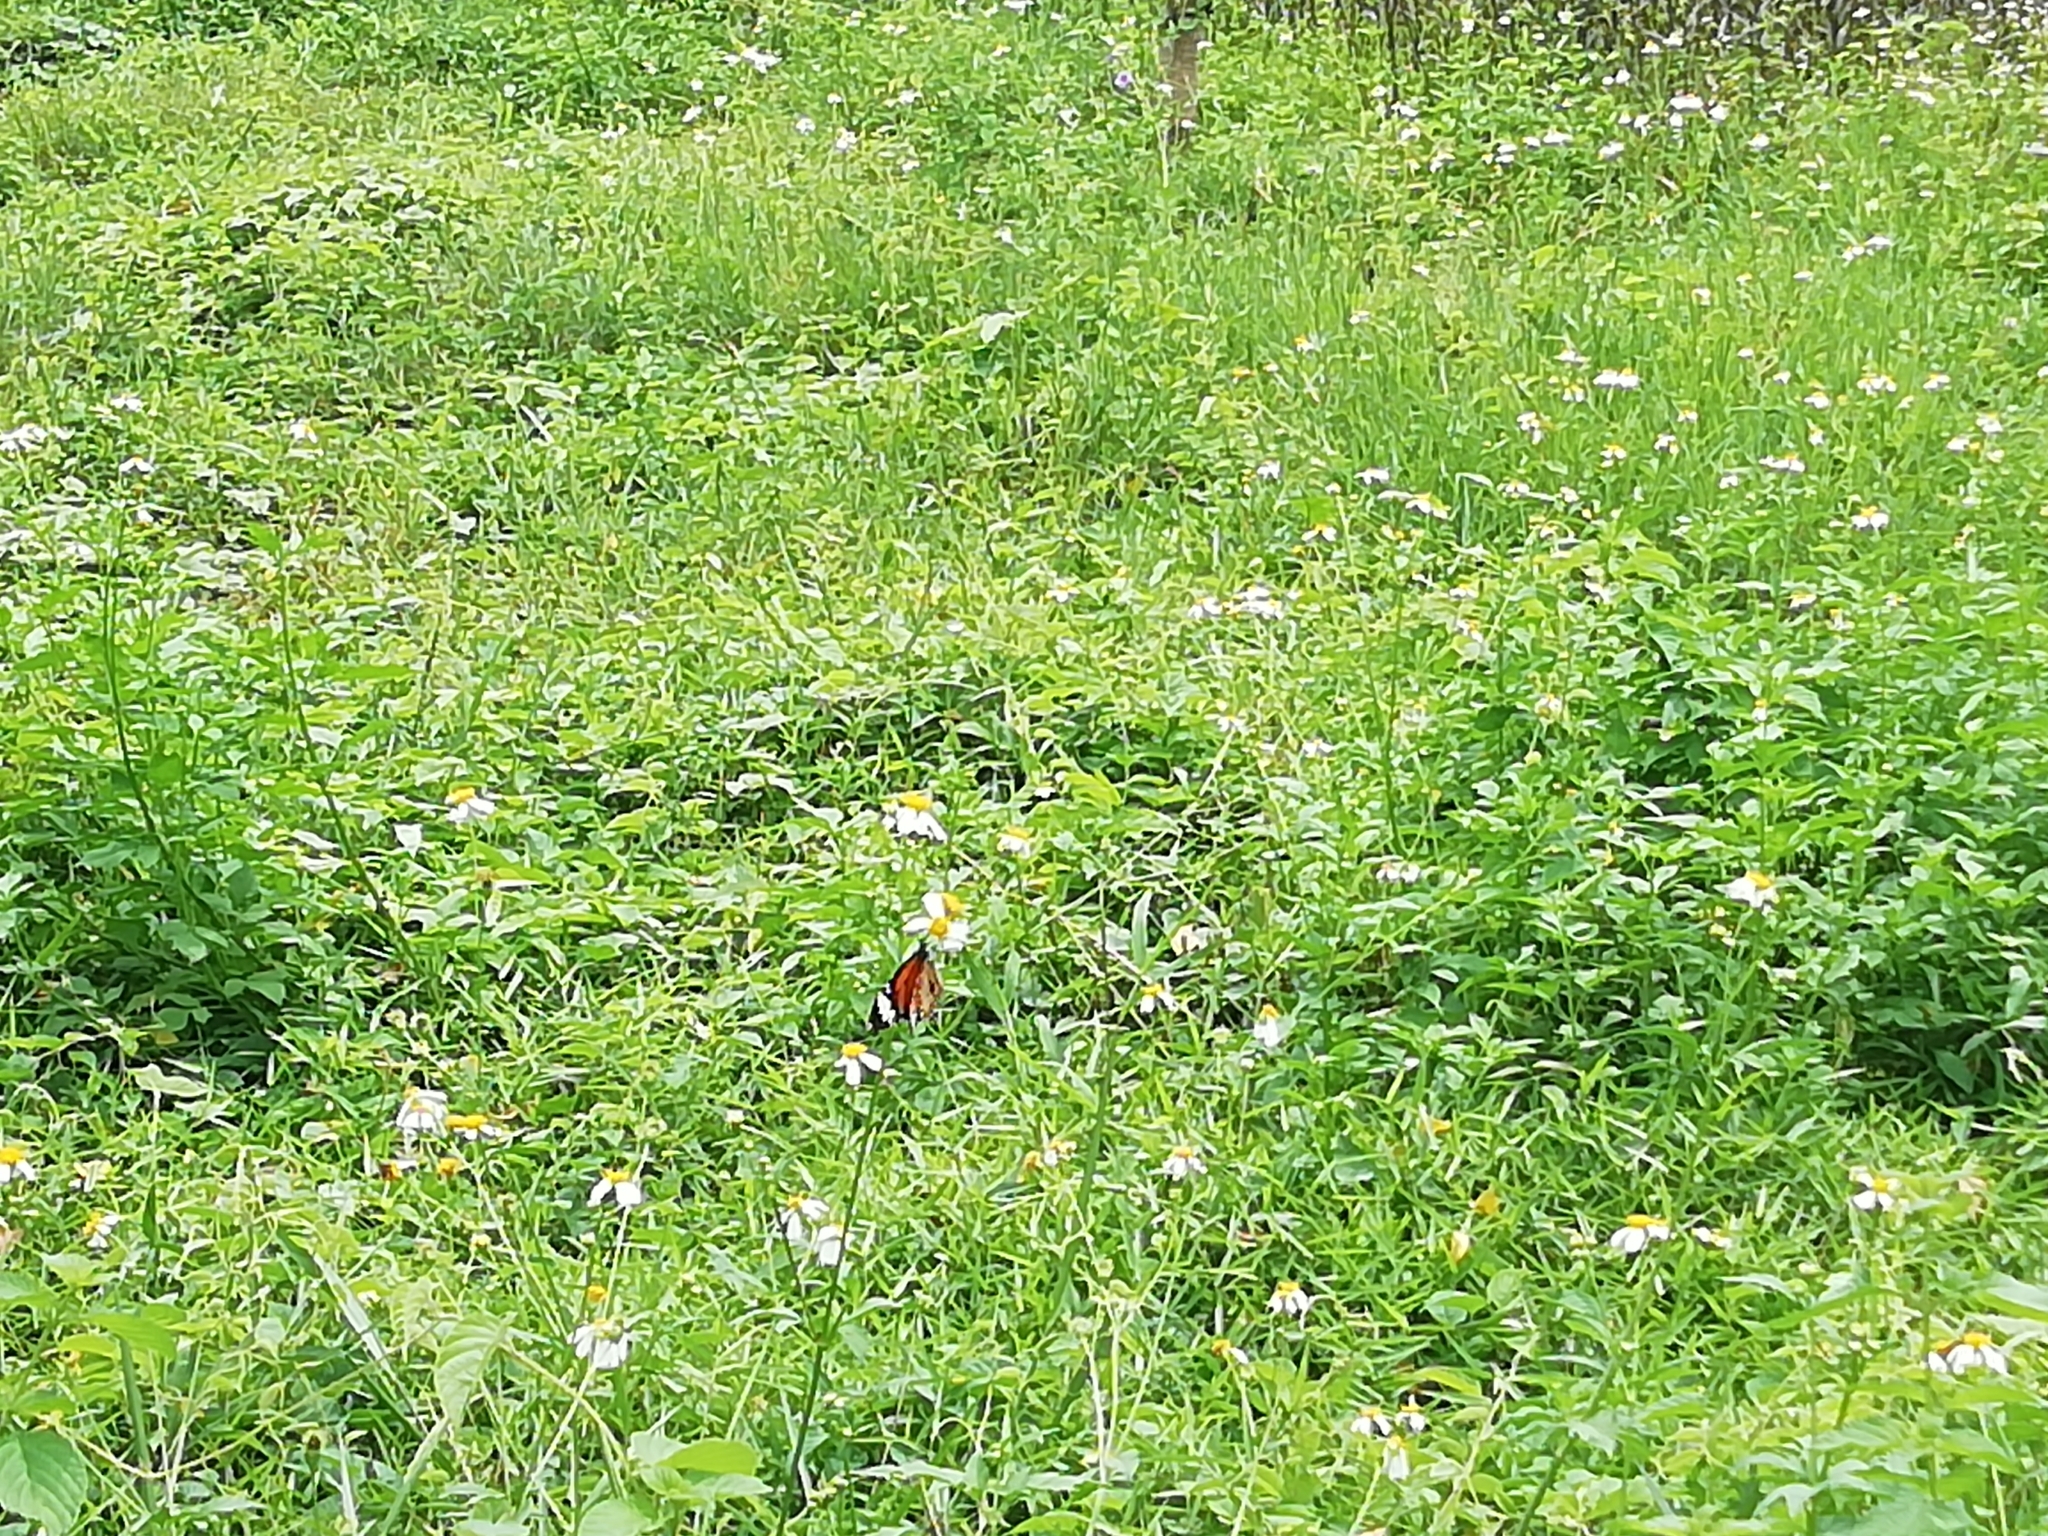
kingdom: Animalia
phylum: Arthropoda
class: Insecta
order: Lepidoptera
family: Nymphalidae
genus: Danaus
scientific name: Danaus genutia
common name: Common tiger butterfly
